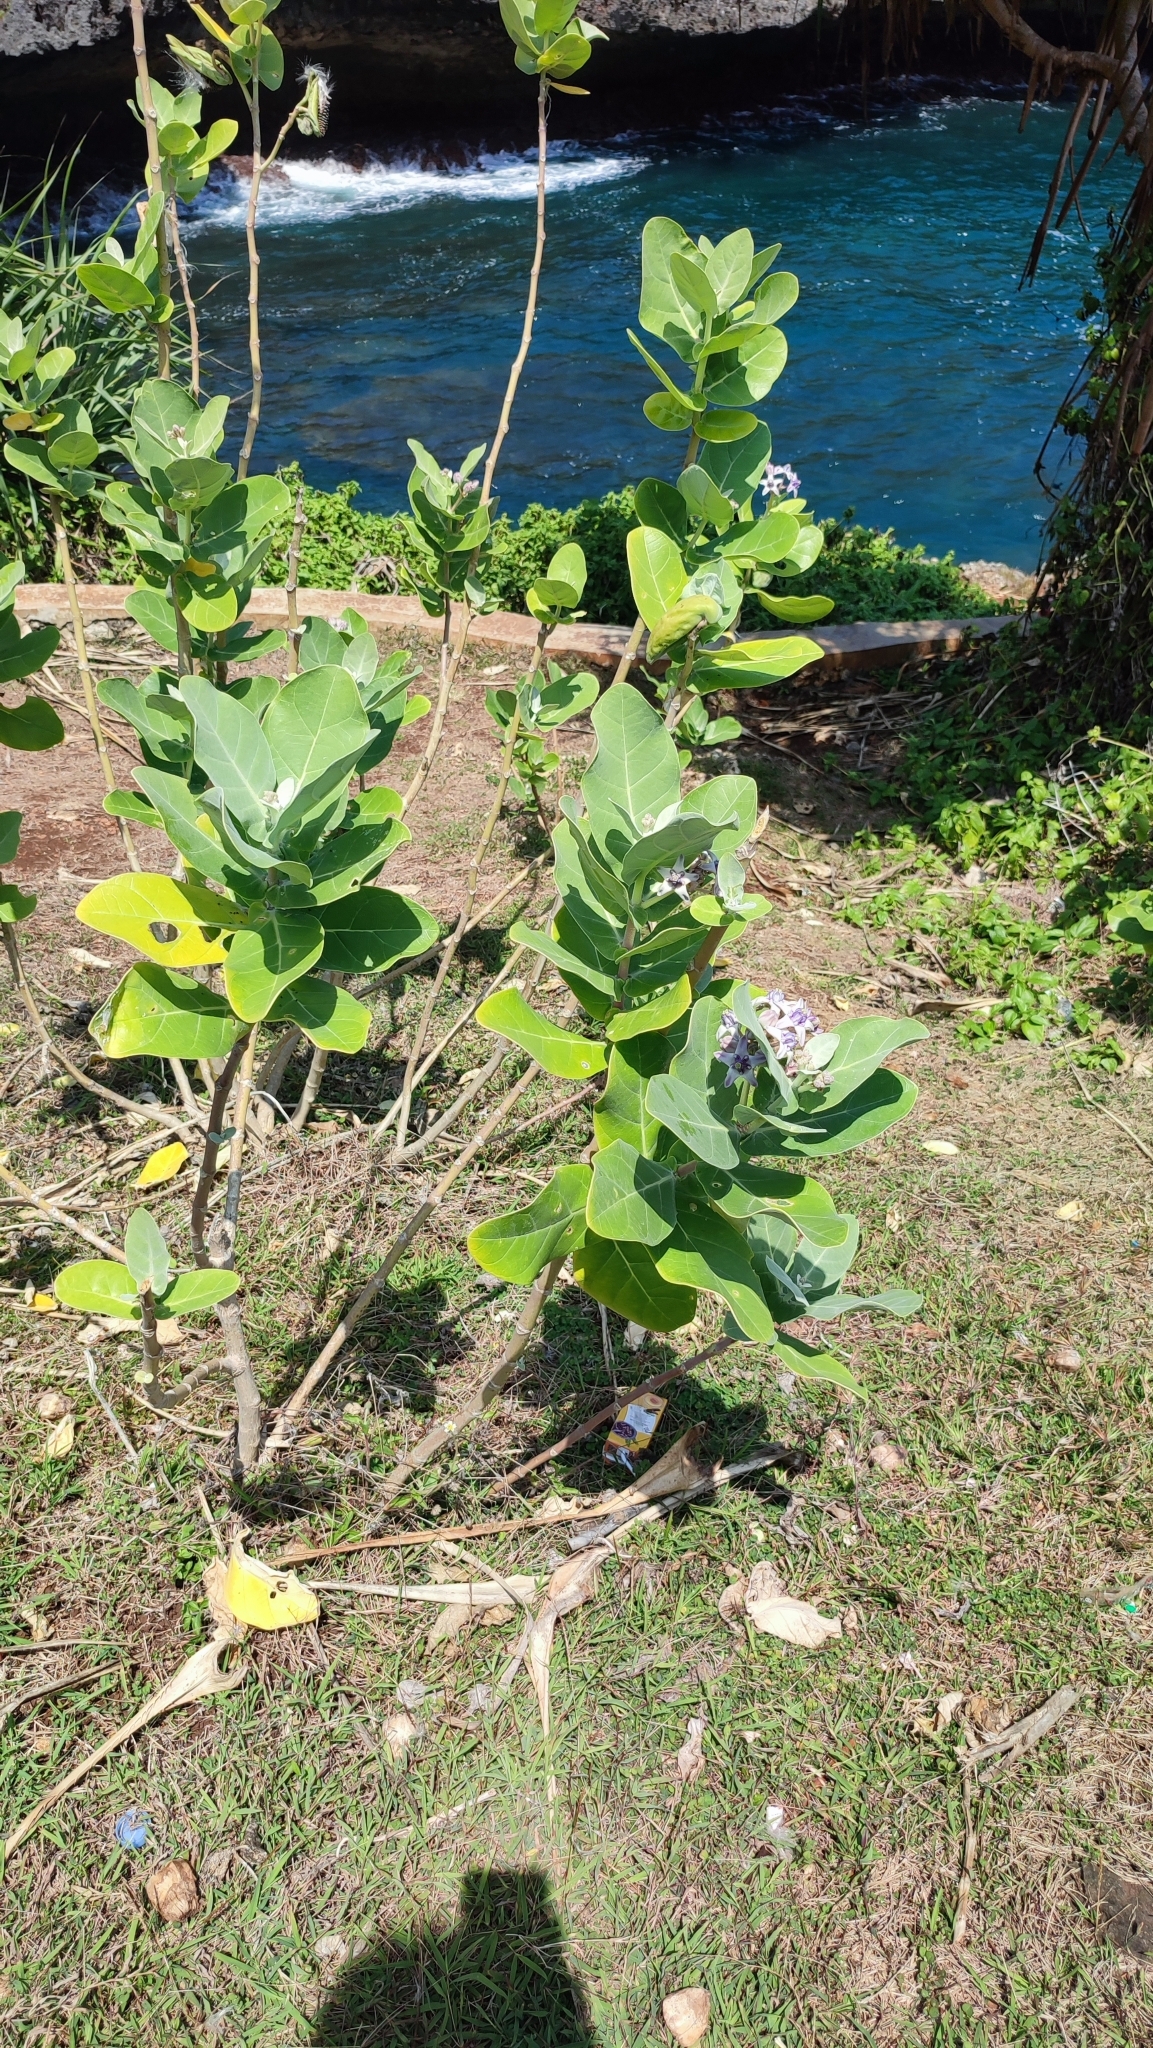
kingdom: Plantae
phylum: Tracheophyta
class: Magnoliopsida
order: Gentianales
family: Apocynaceae
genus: Calotropis
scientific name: Calotropis gigantea
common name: Crown flower
